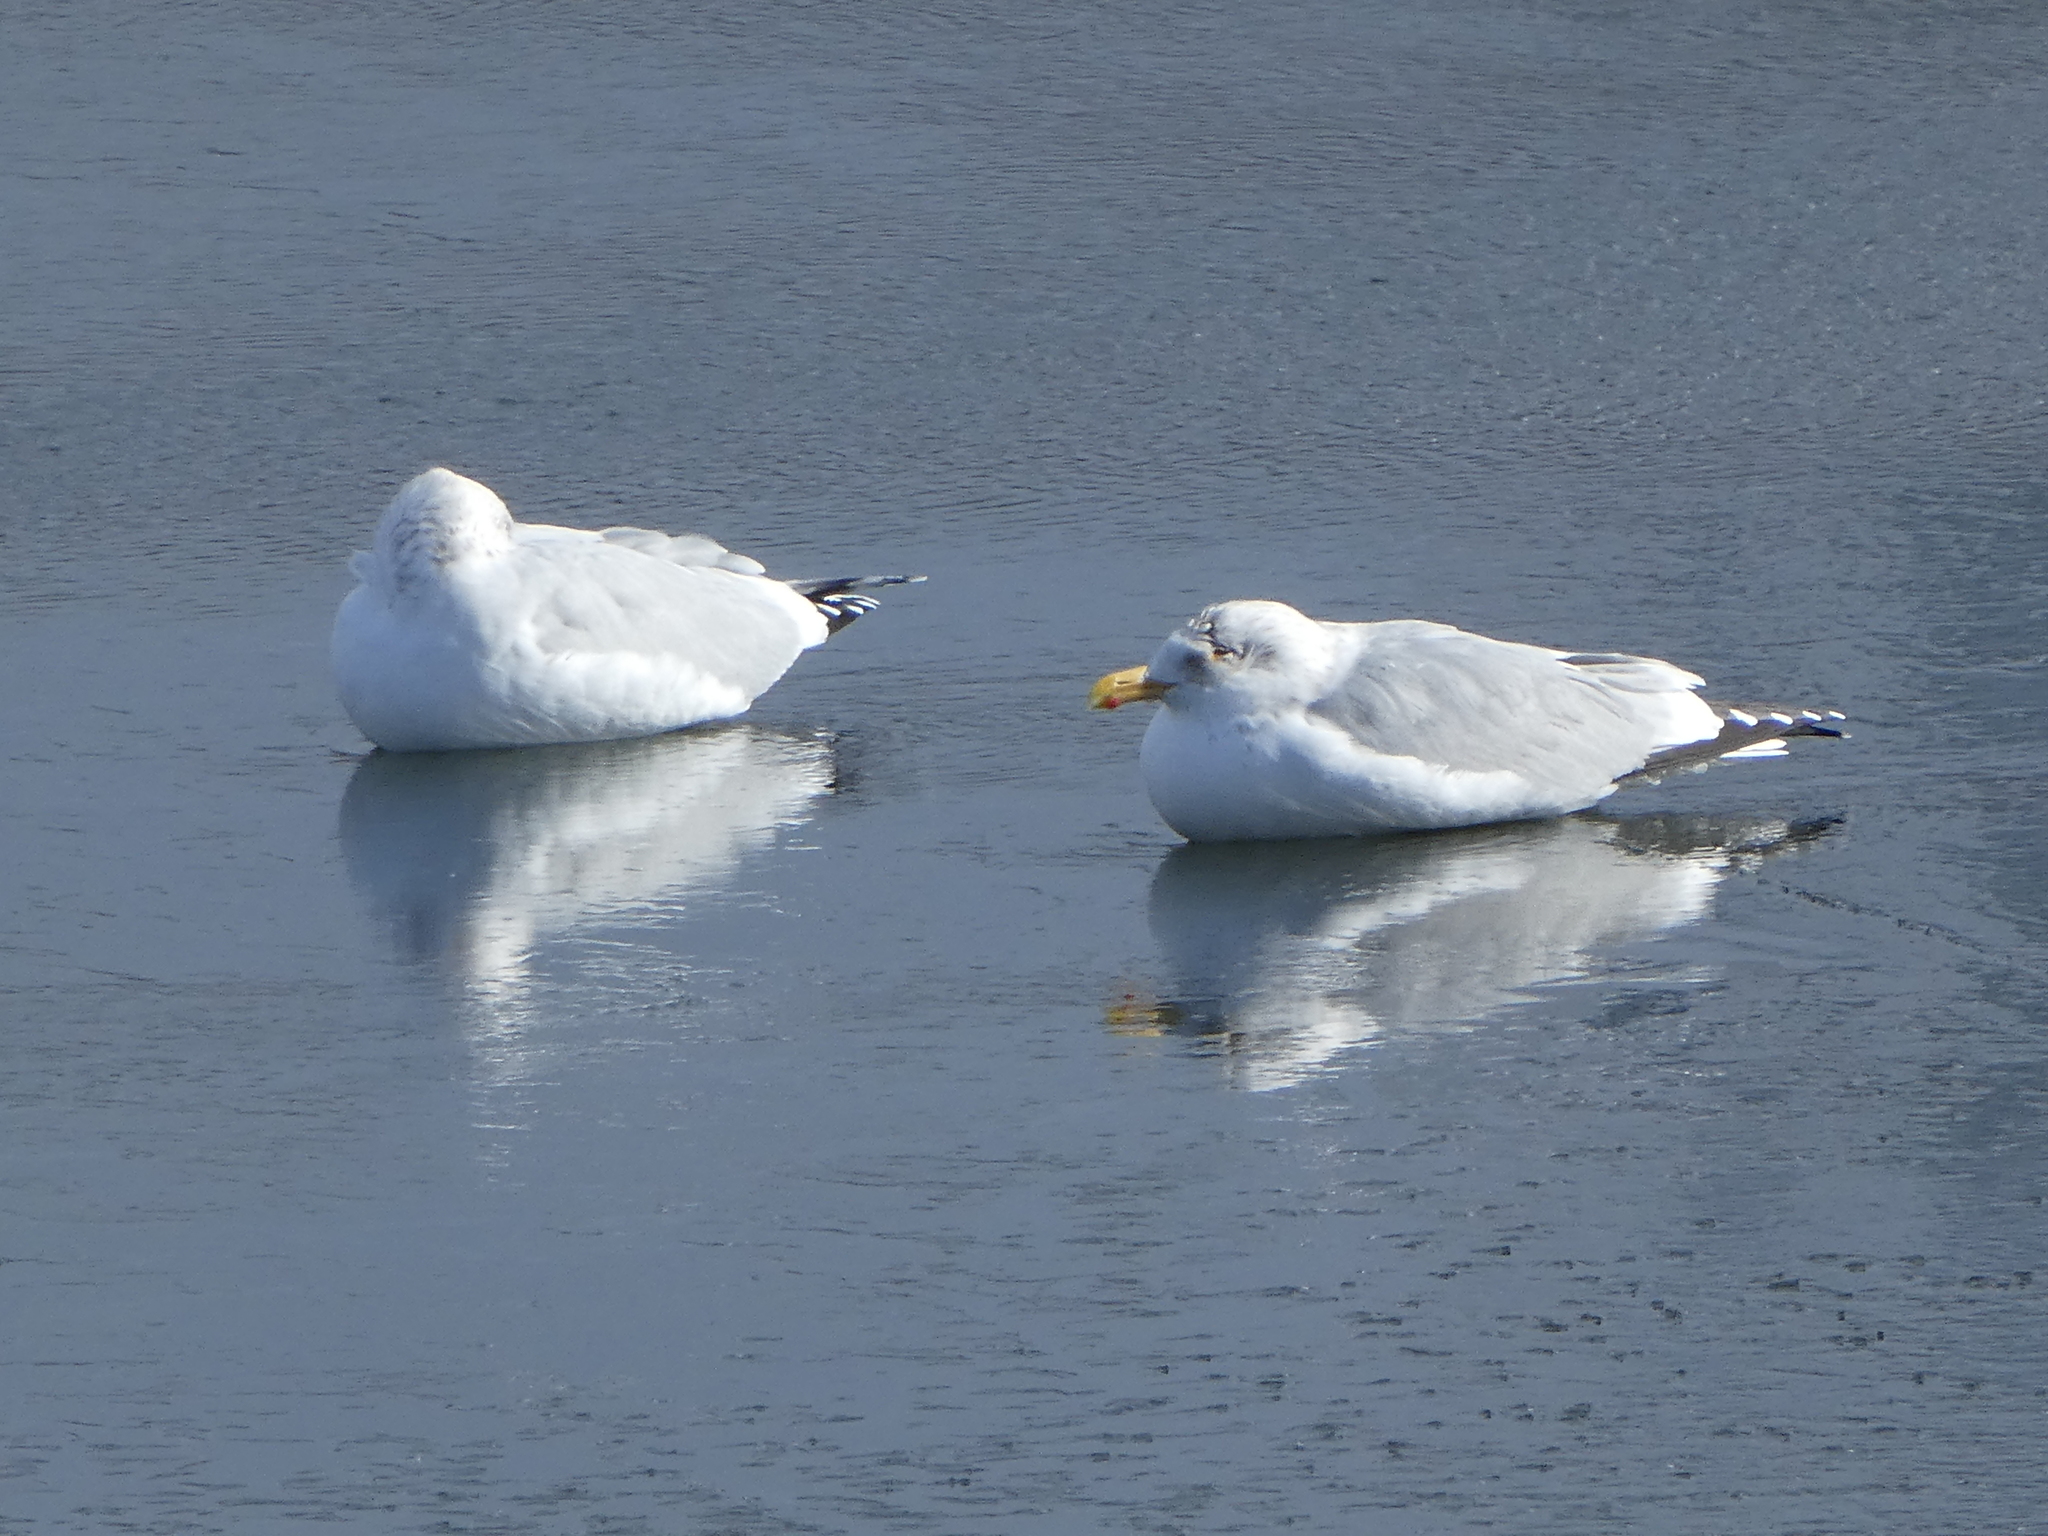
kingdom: Animalia
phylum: Chordata
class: Aves
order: Charadriiformes
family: Laridae
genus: Larus
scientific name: Larus argentatus
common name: Herring gull
